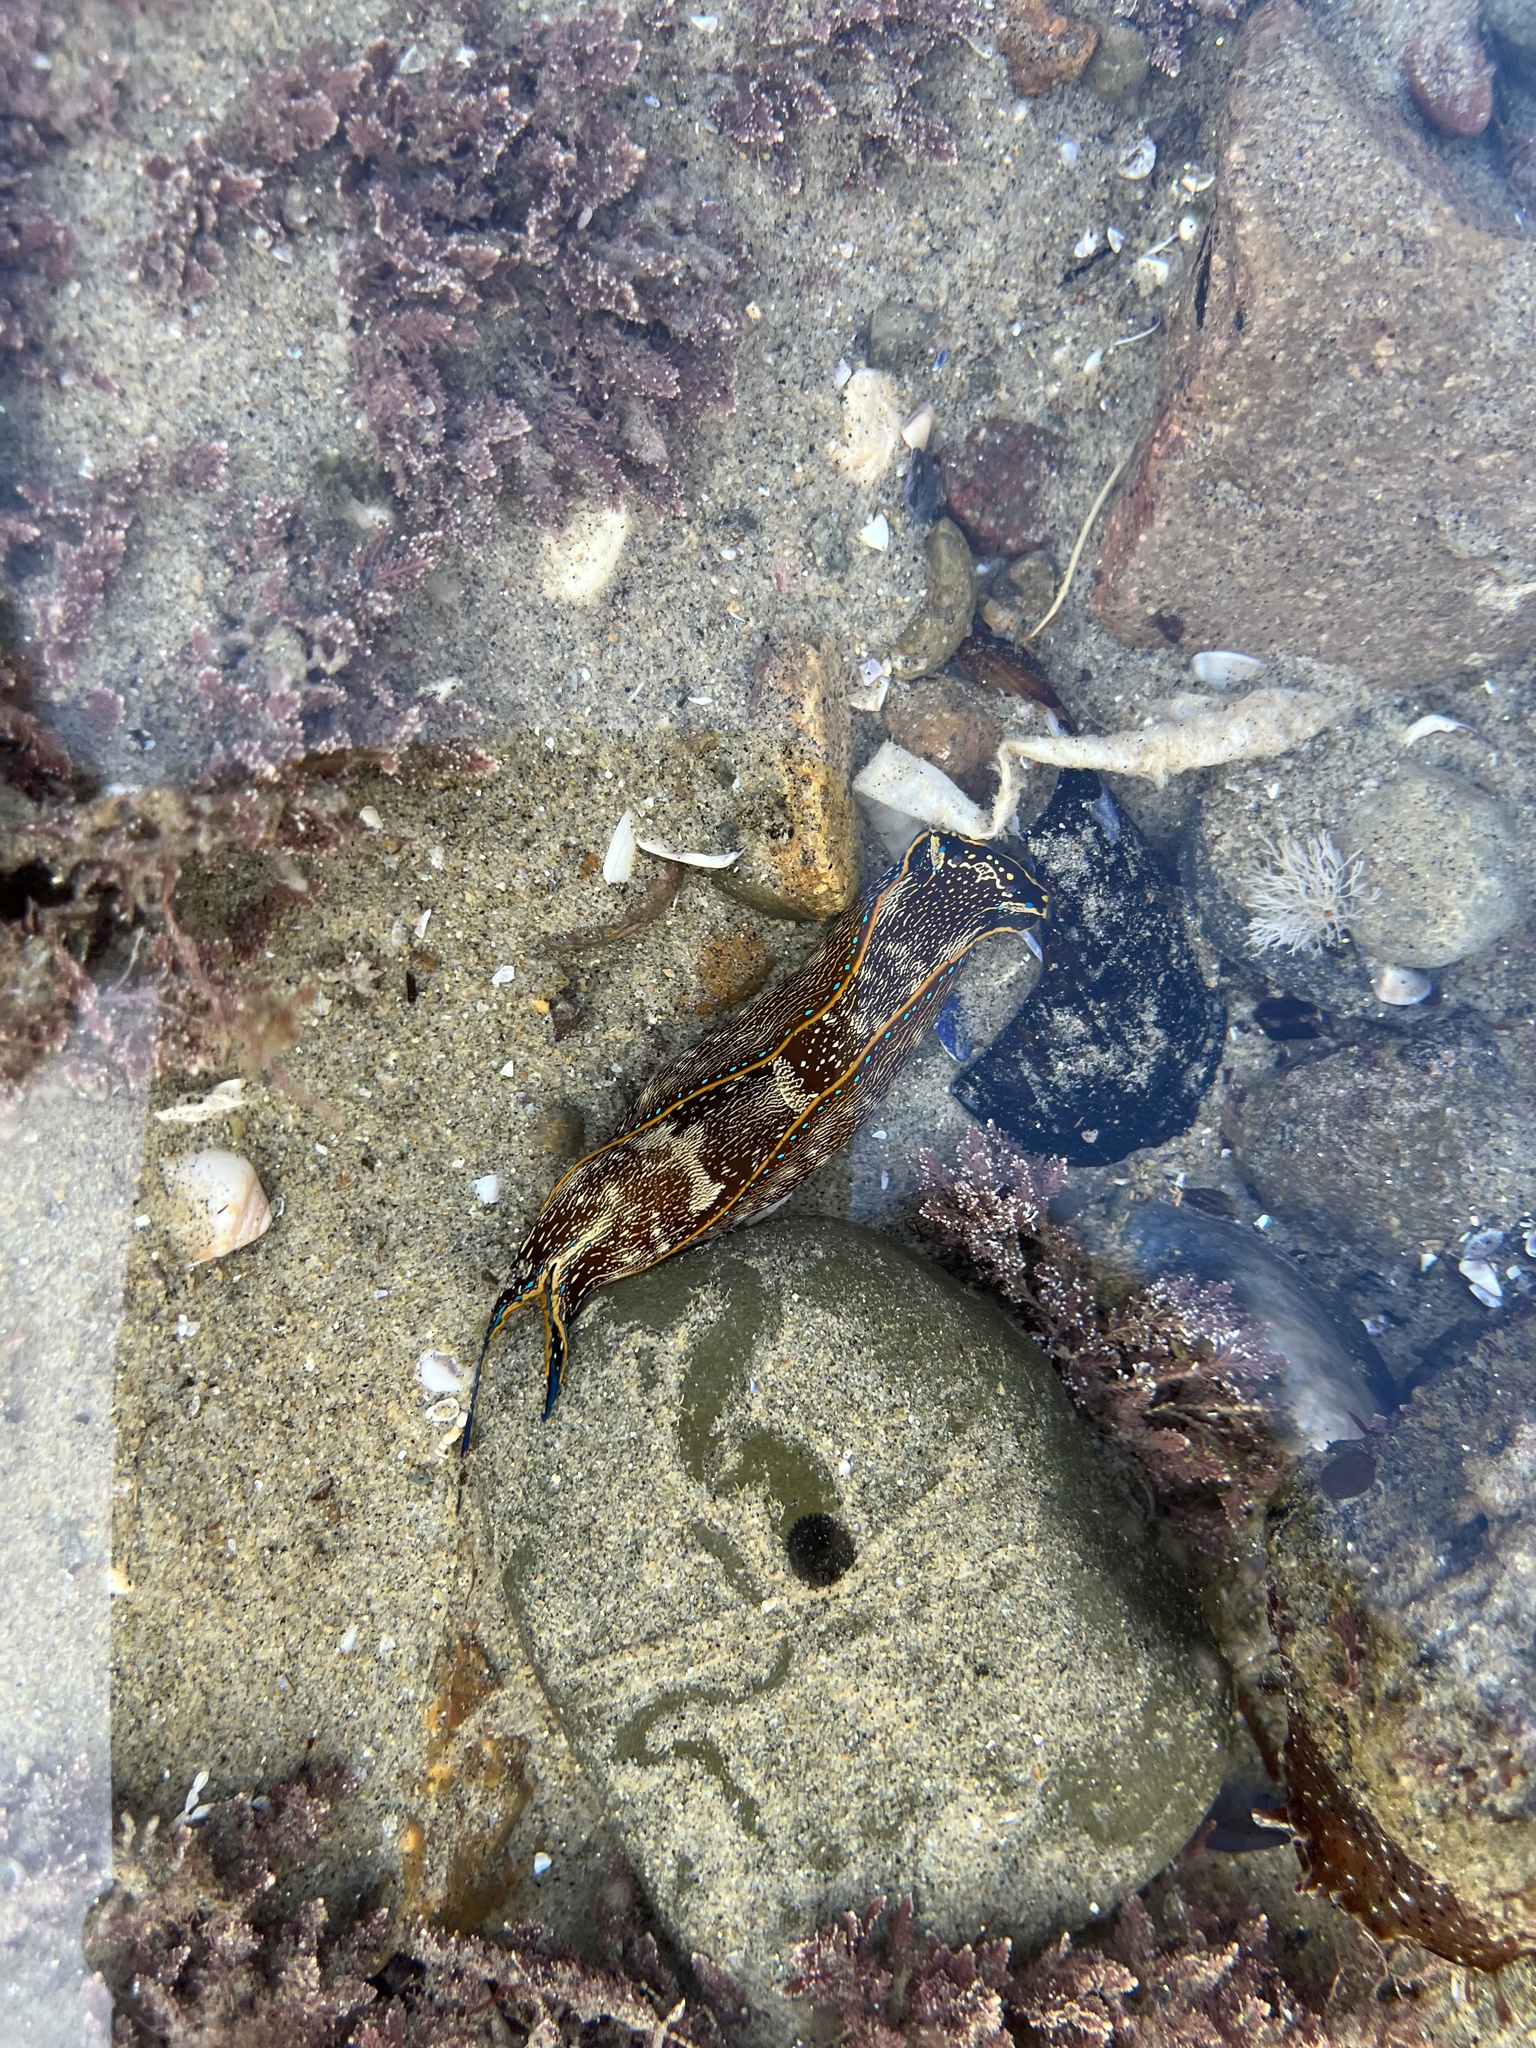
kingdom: Animalia
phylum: Mollusca
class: Gastropoda
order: Cephalaspidea
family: Aglajidae
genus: Navanax
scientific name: Navanax inermis
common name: California aglaja
